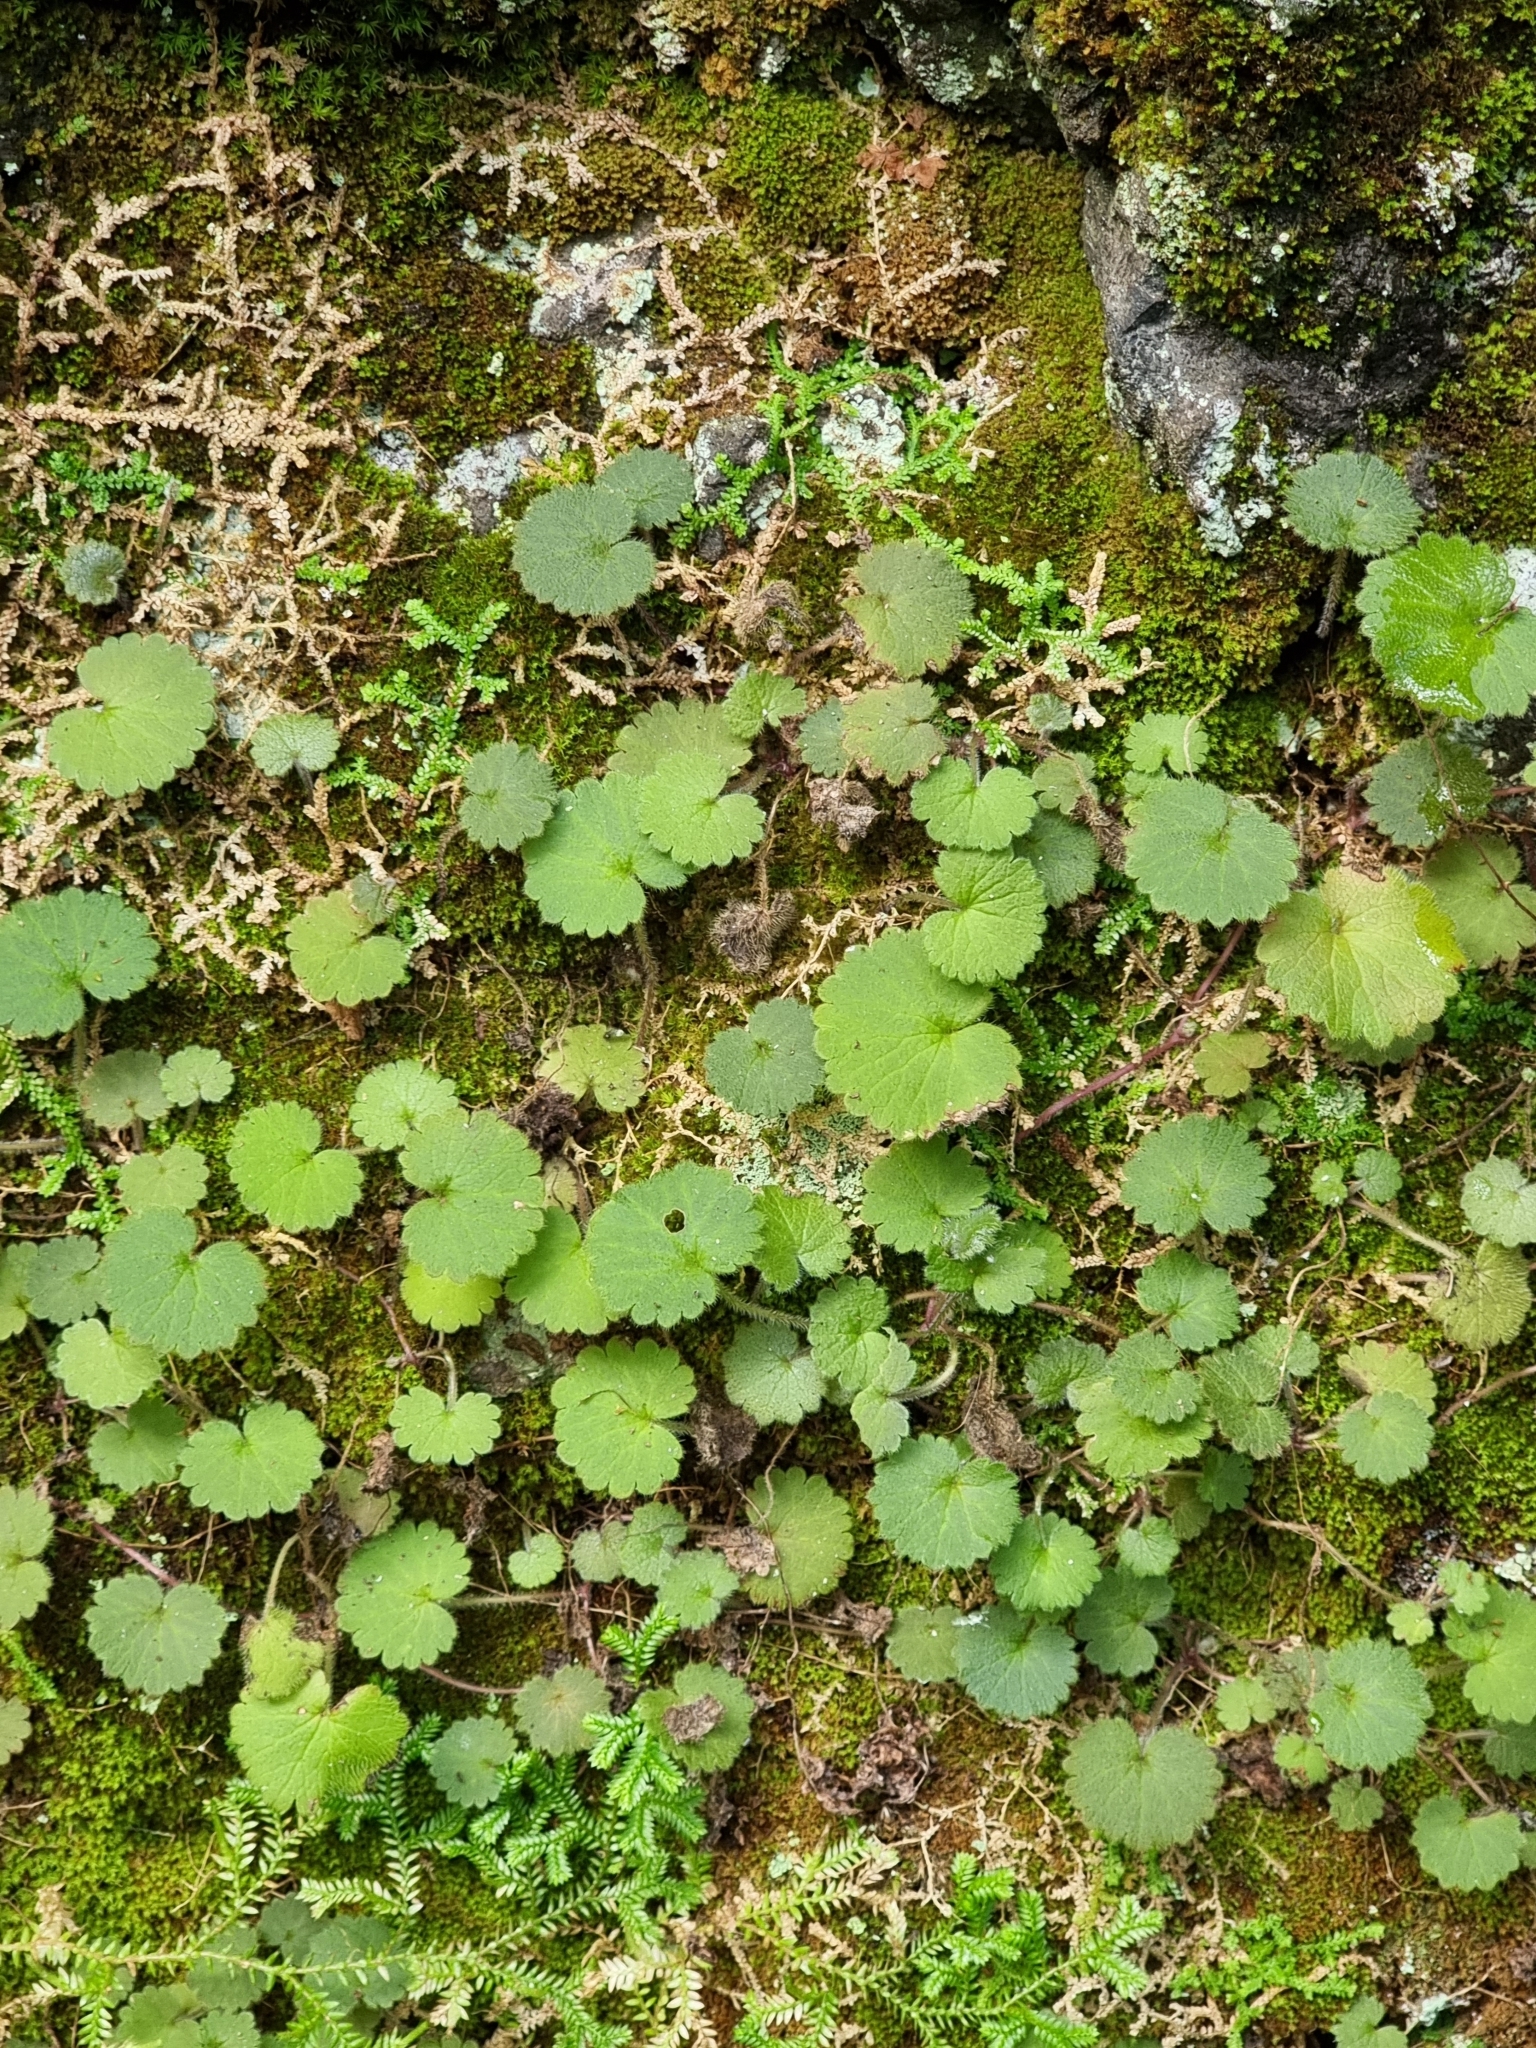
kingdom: Plantae
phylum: Tracheophyta
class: Magnoliopsida
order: Lamiales
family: Plantaginaceae
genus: Sibthorpia
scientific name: Sibthorpia peregrina
